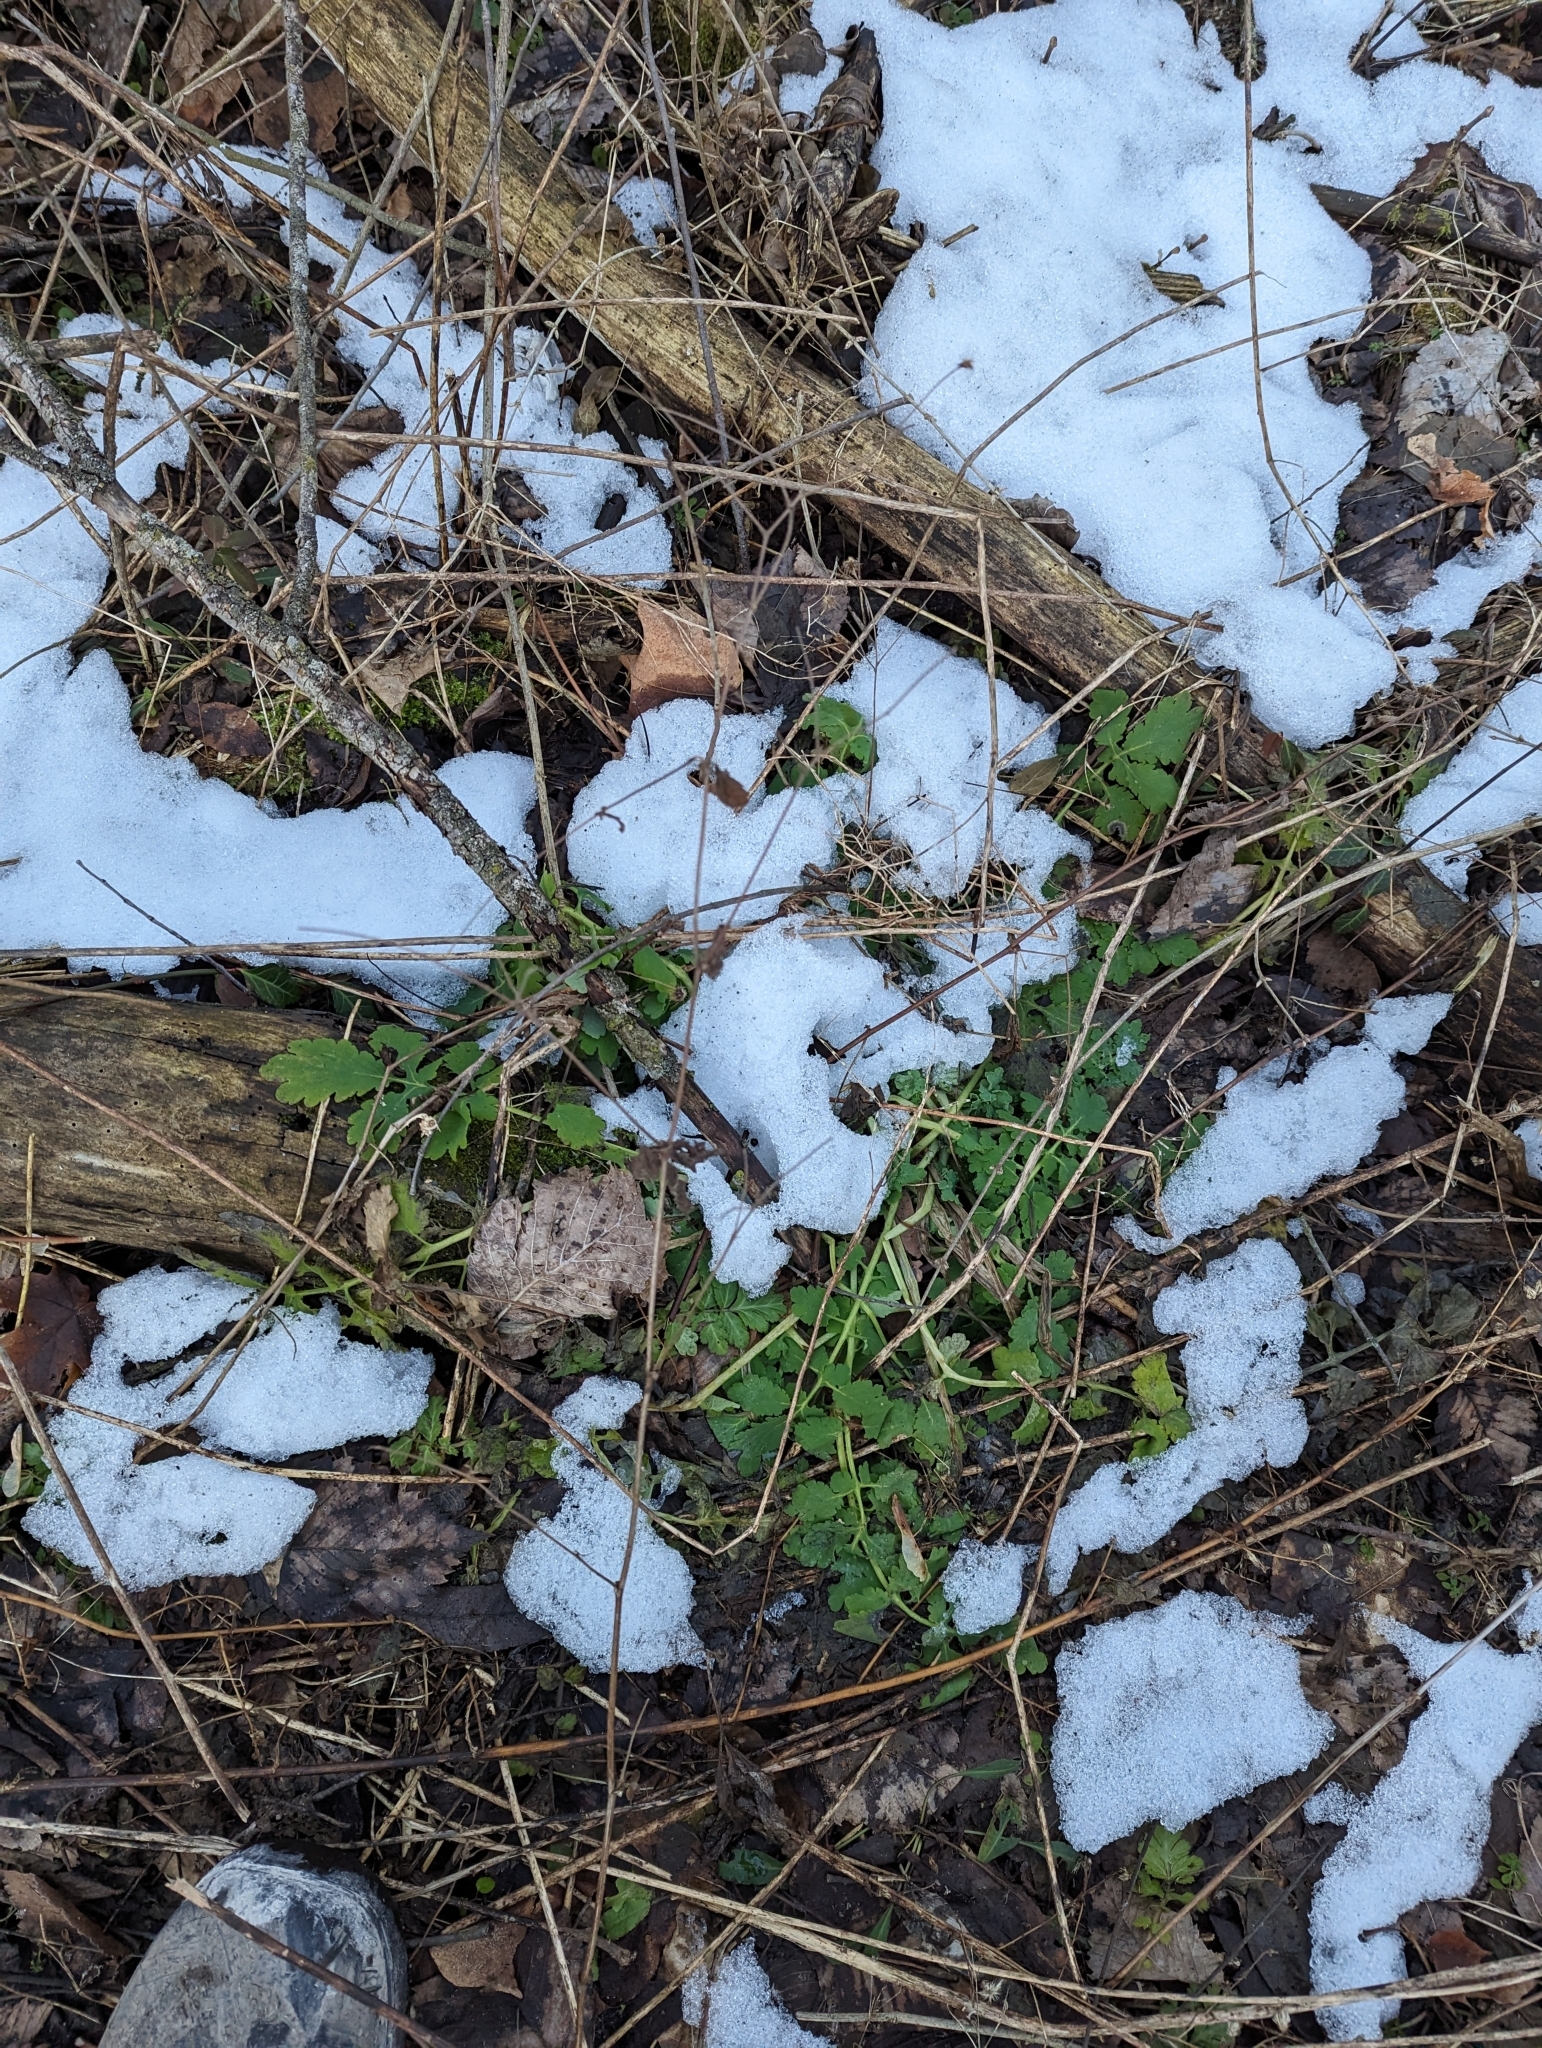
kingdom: Plantae
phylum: Tracheophyta
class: Magnoliopsida
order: Ranunculales
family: Papaveraceae
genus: Chelidonium
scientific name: Chelidonium majus
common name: Greater celandine
